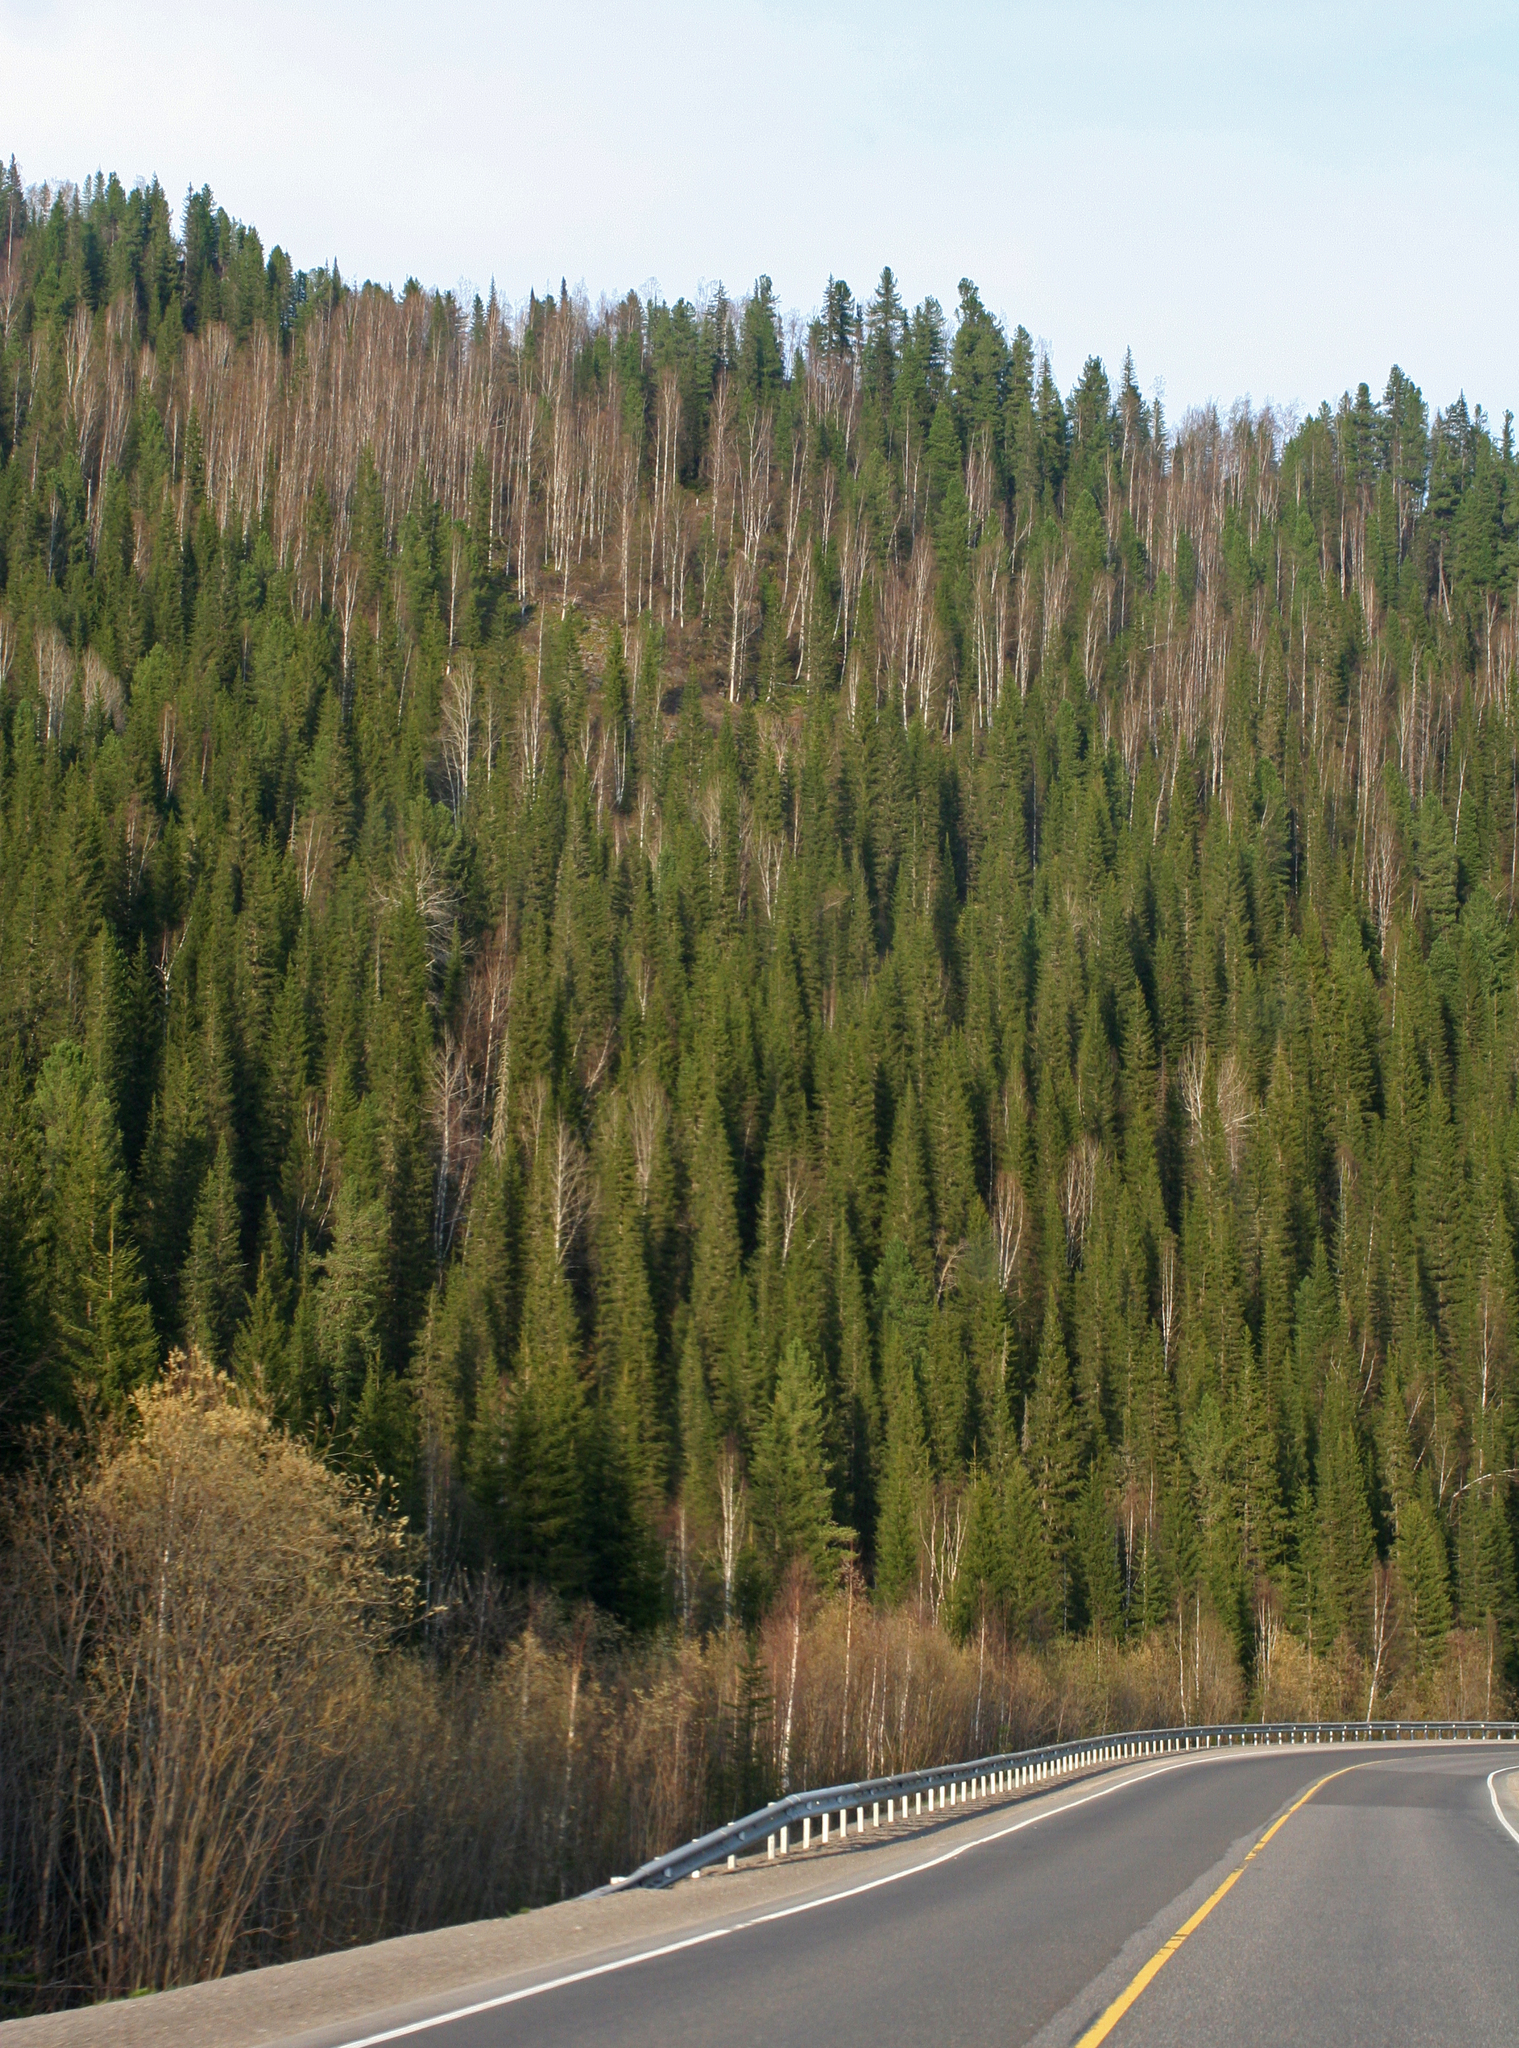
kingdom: Plantae
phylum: Tracheophyta
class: Pinopsida
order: Pinales
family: Pinaceae
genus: Abies
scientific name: Abies sibirica
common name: Siberian fir
